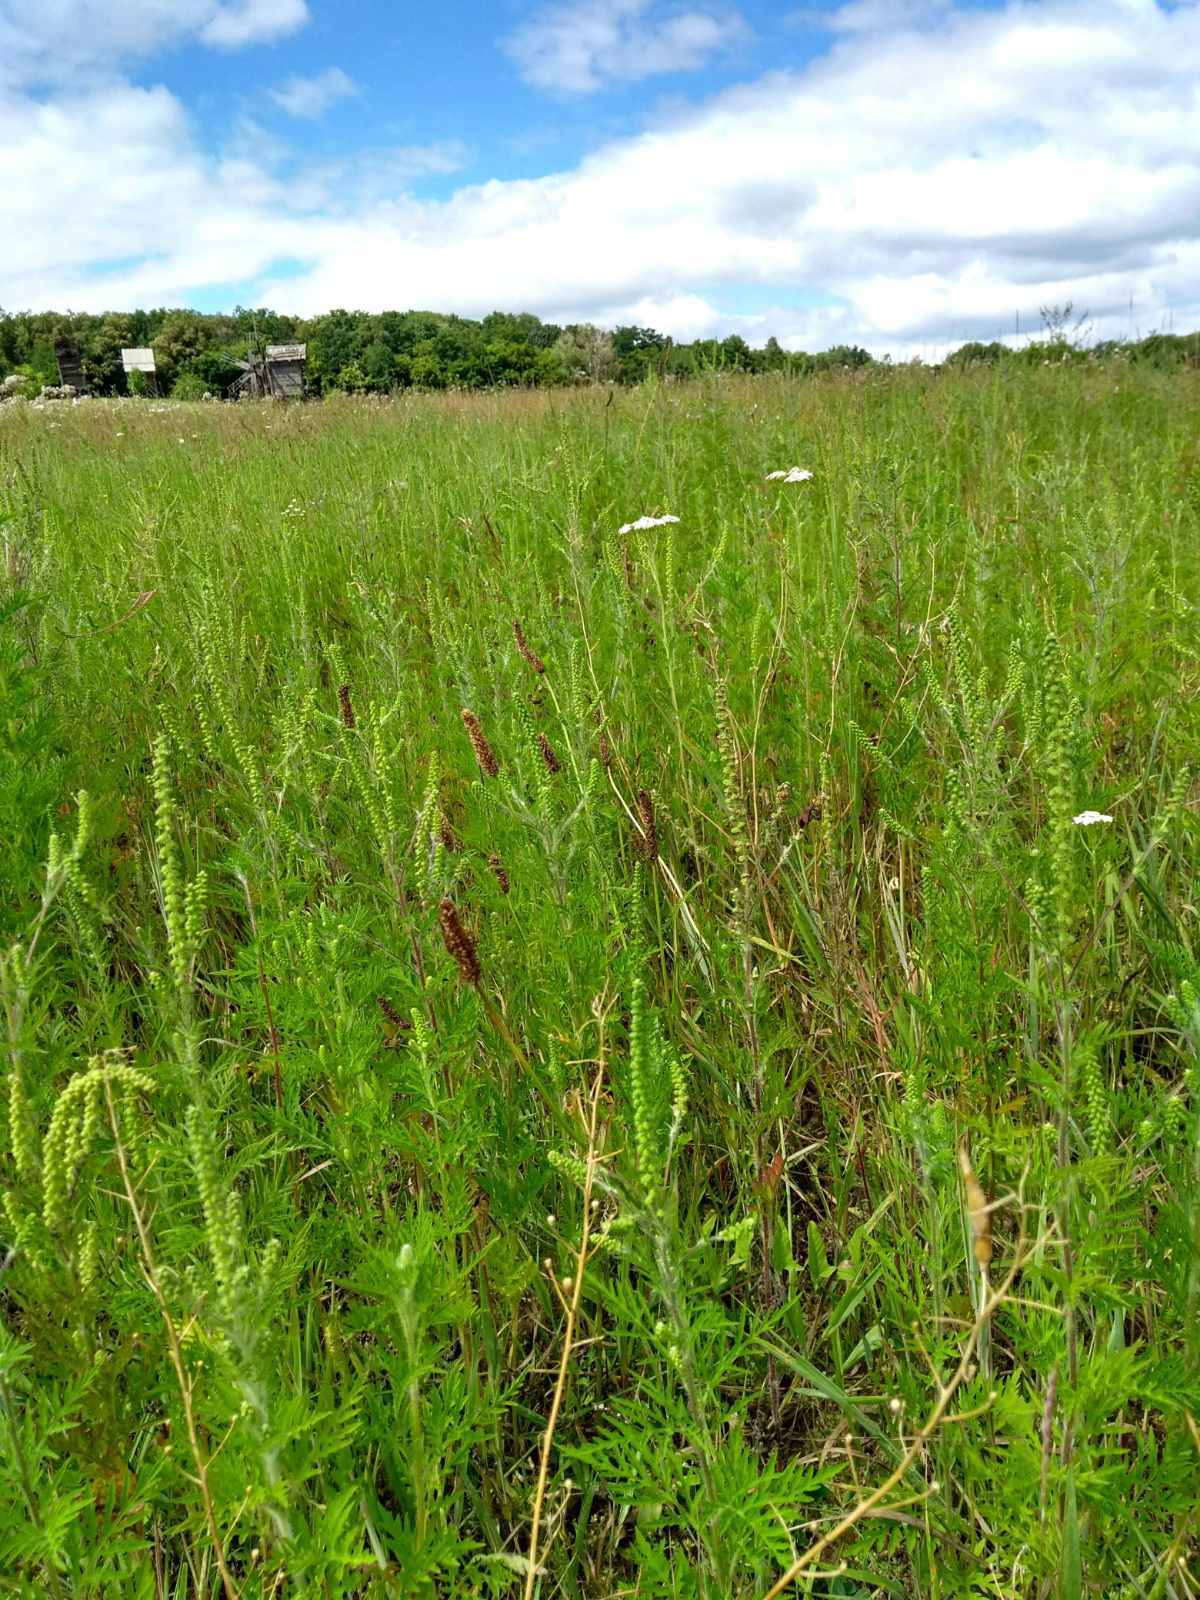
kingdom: Plantae
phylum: Tracheophyta
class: Magnoliopsida
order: Asterales
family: Asteraceae
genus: Ambrosia
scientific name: Ambrosia artemisiifolia
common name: Annual ragweed
